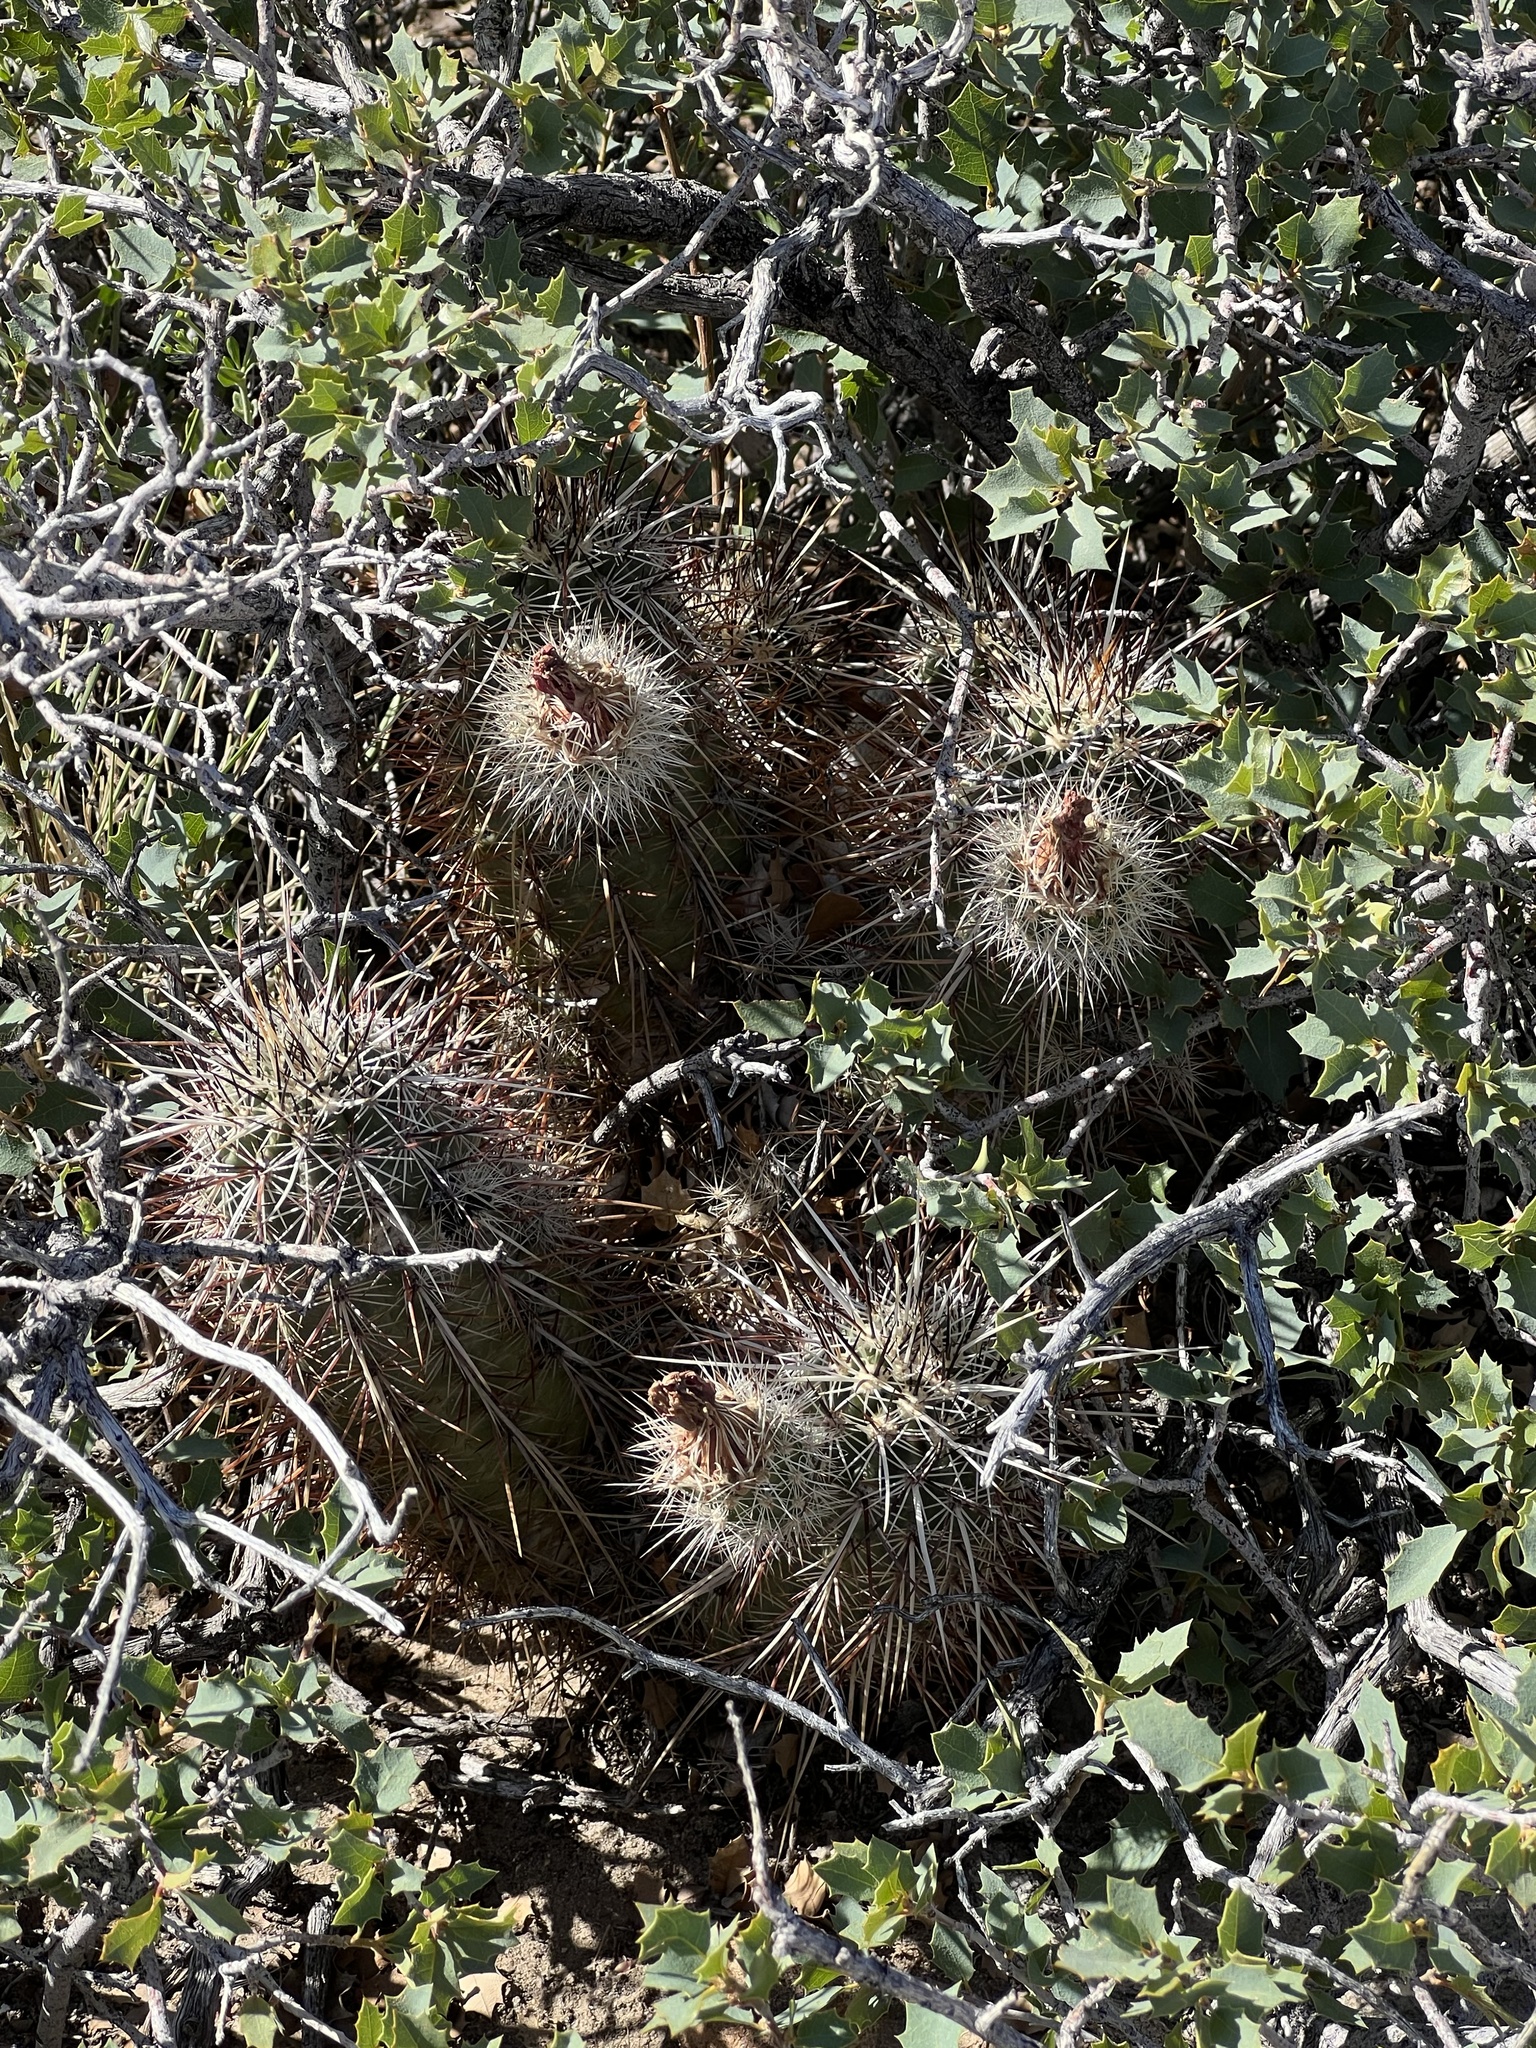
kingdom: Plantae
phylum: Tracheophyta
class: Magnoliopsida
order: Caryophyllales
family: Cactaceae
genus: Echinocereus
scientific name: Echinocereus engelmannii
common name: Engelmann's hedgehog cactus
